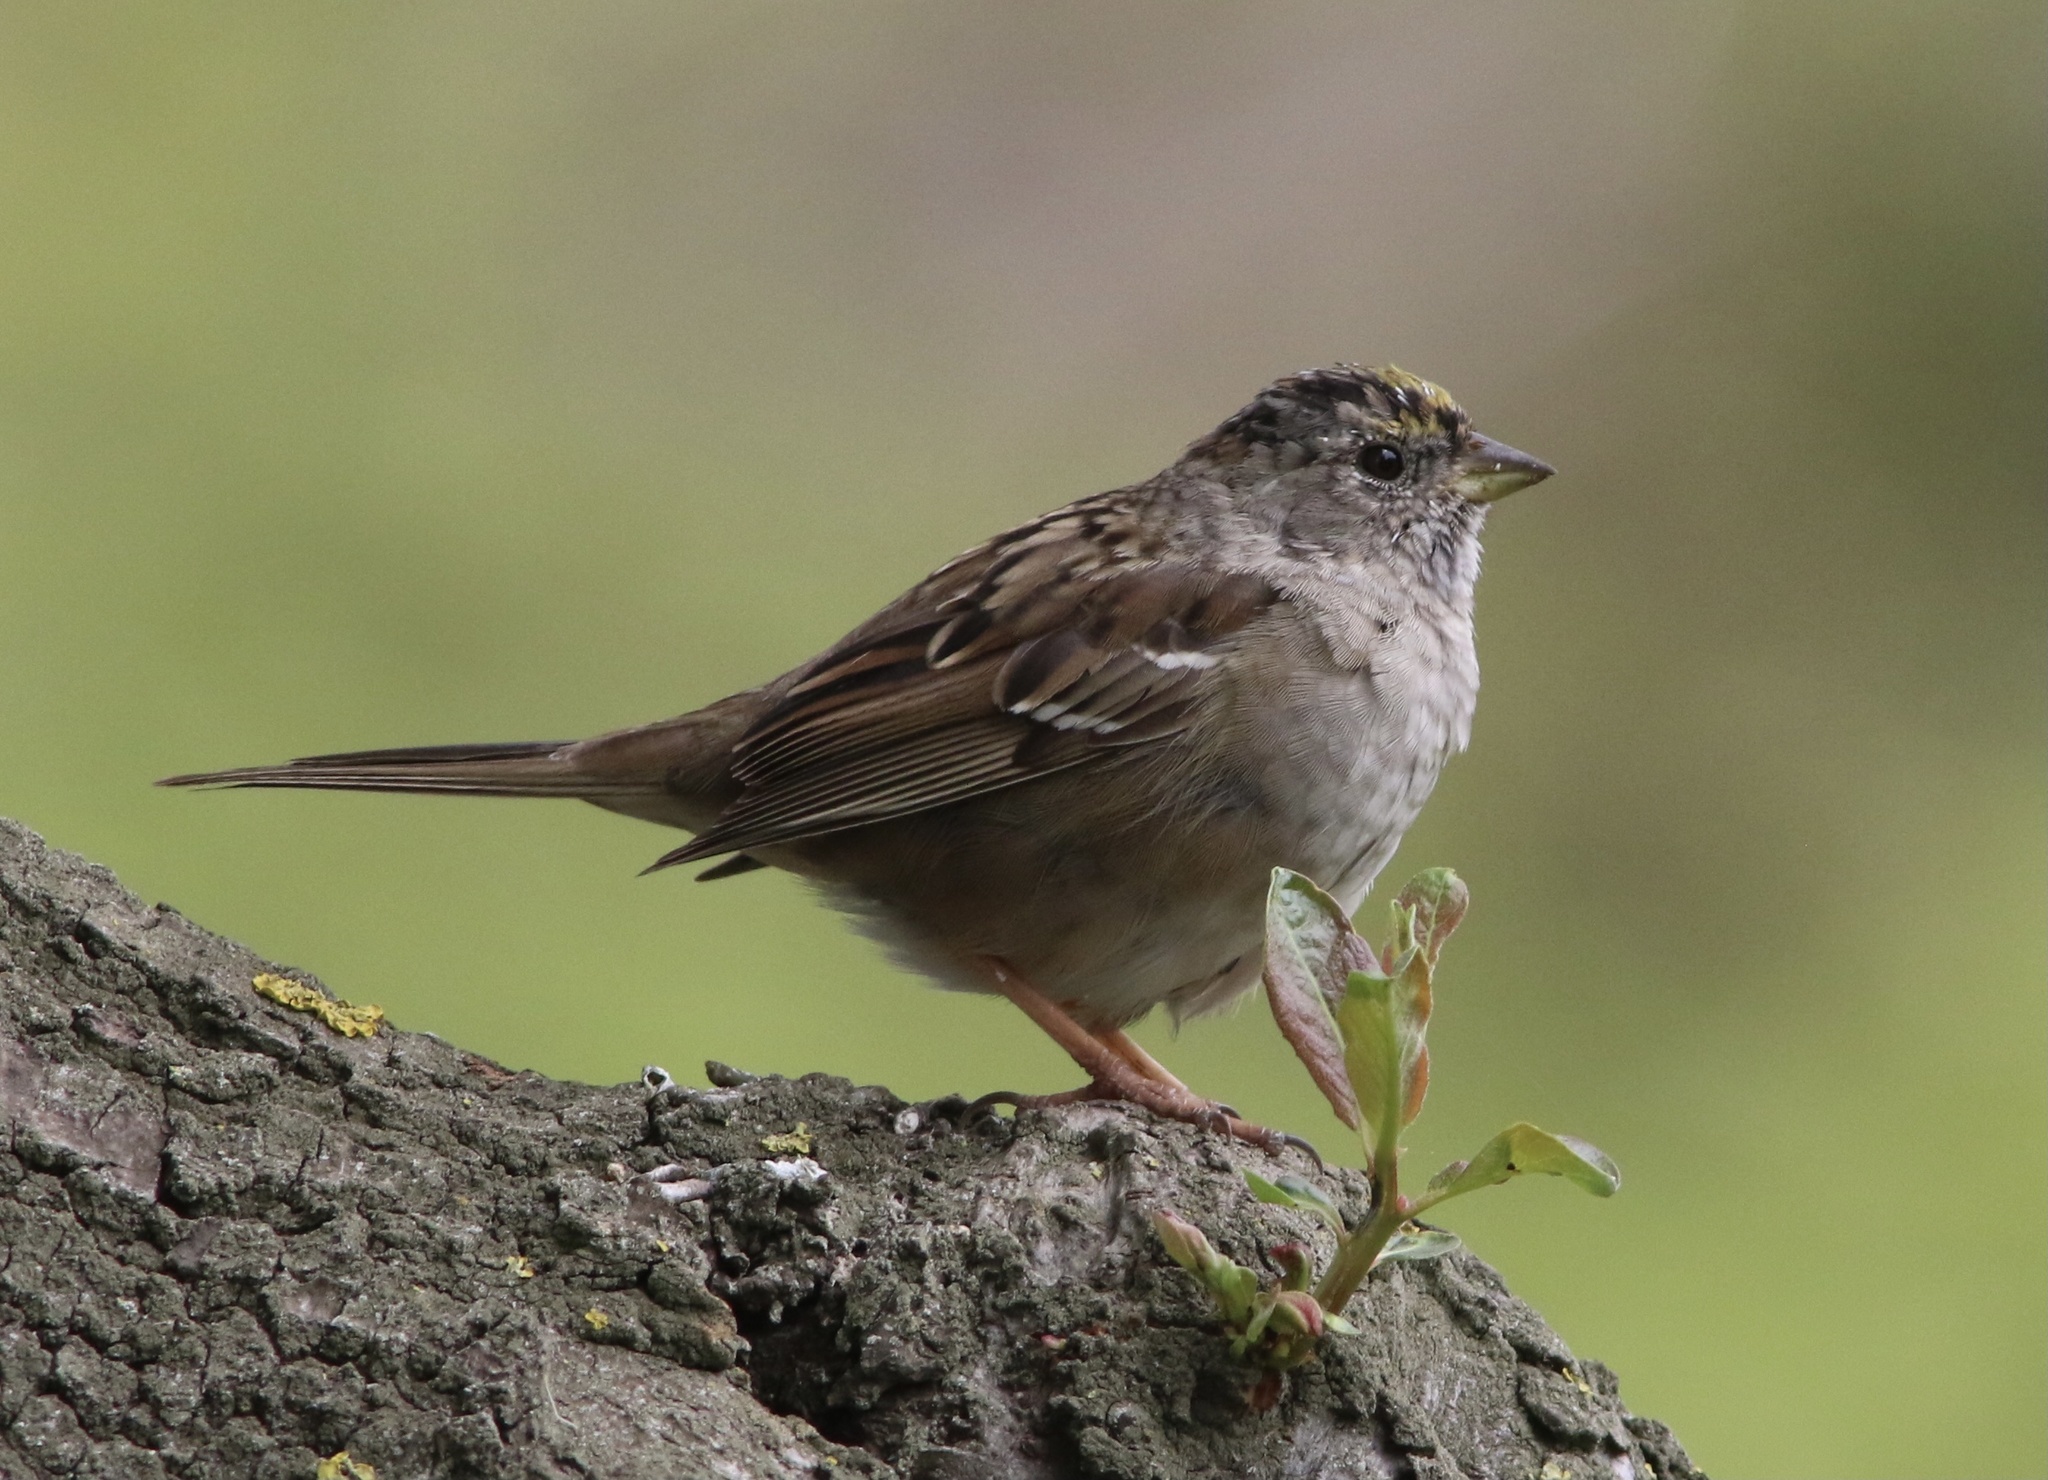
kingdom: Animalia
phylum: Chordata
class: Aves
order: Passeriformes
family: Passerellidae
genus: Zonotrichia
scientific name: Zonotrichia atricapilla
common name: Golden-crowned sparrow
